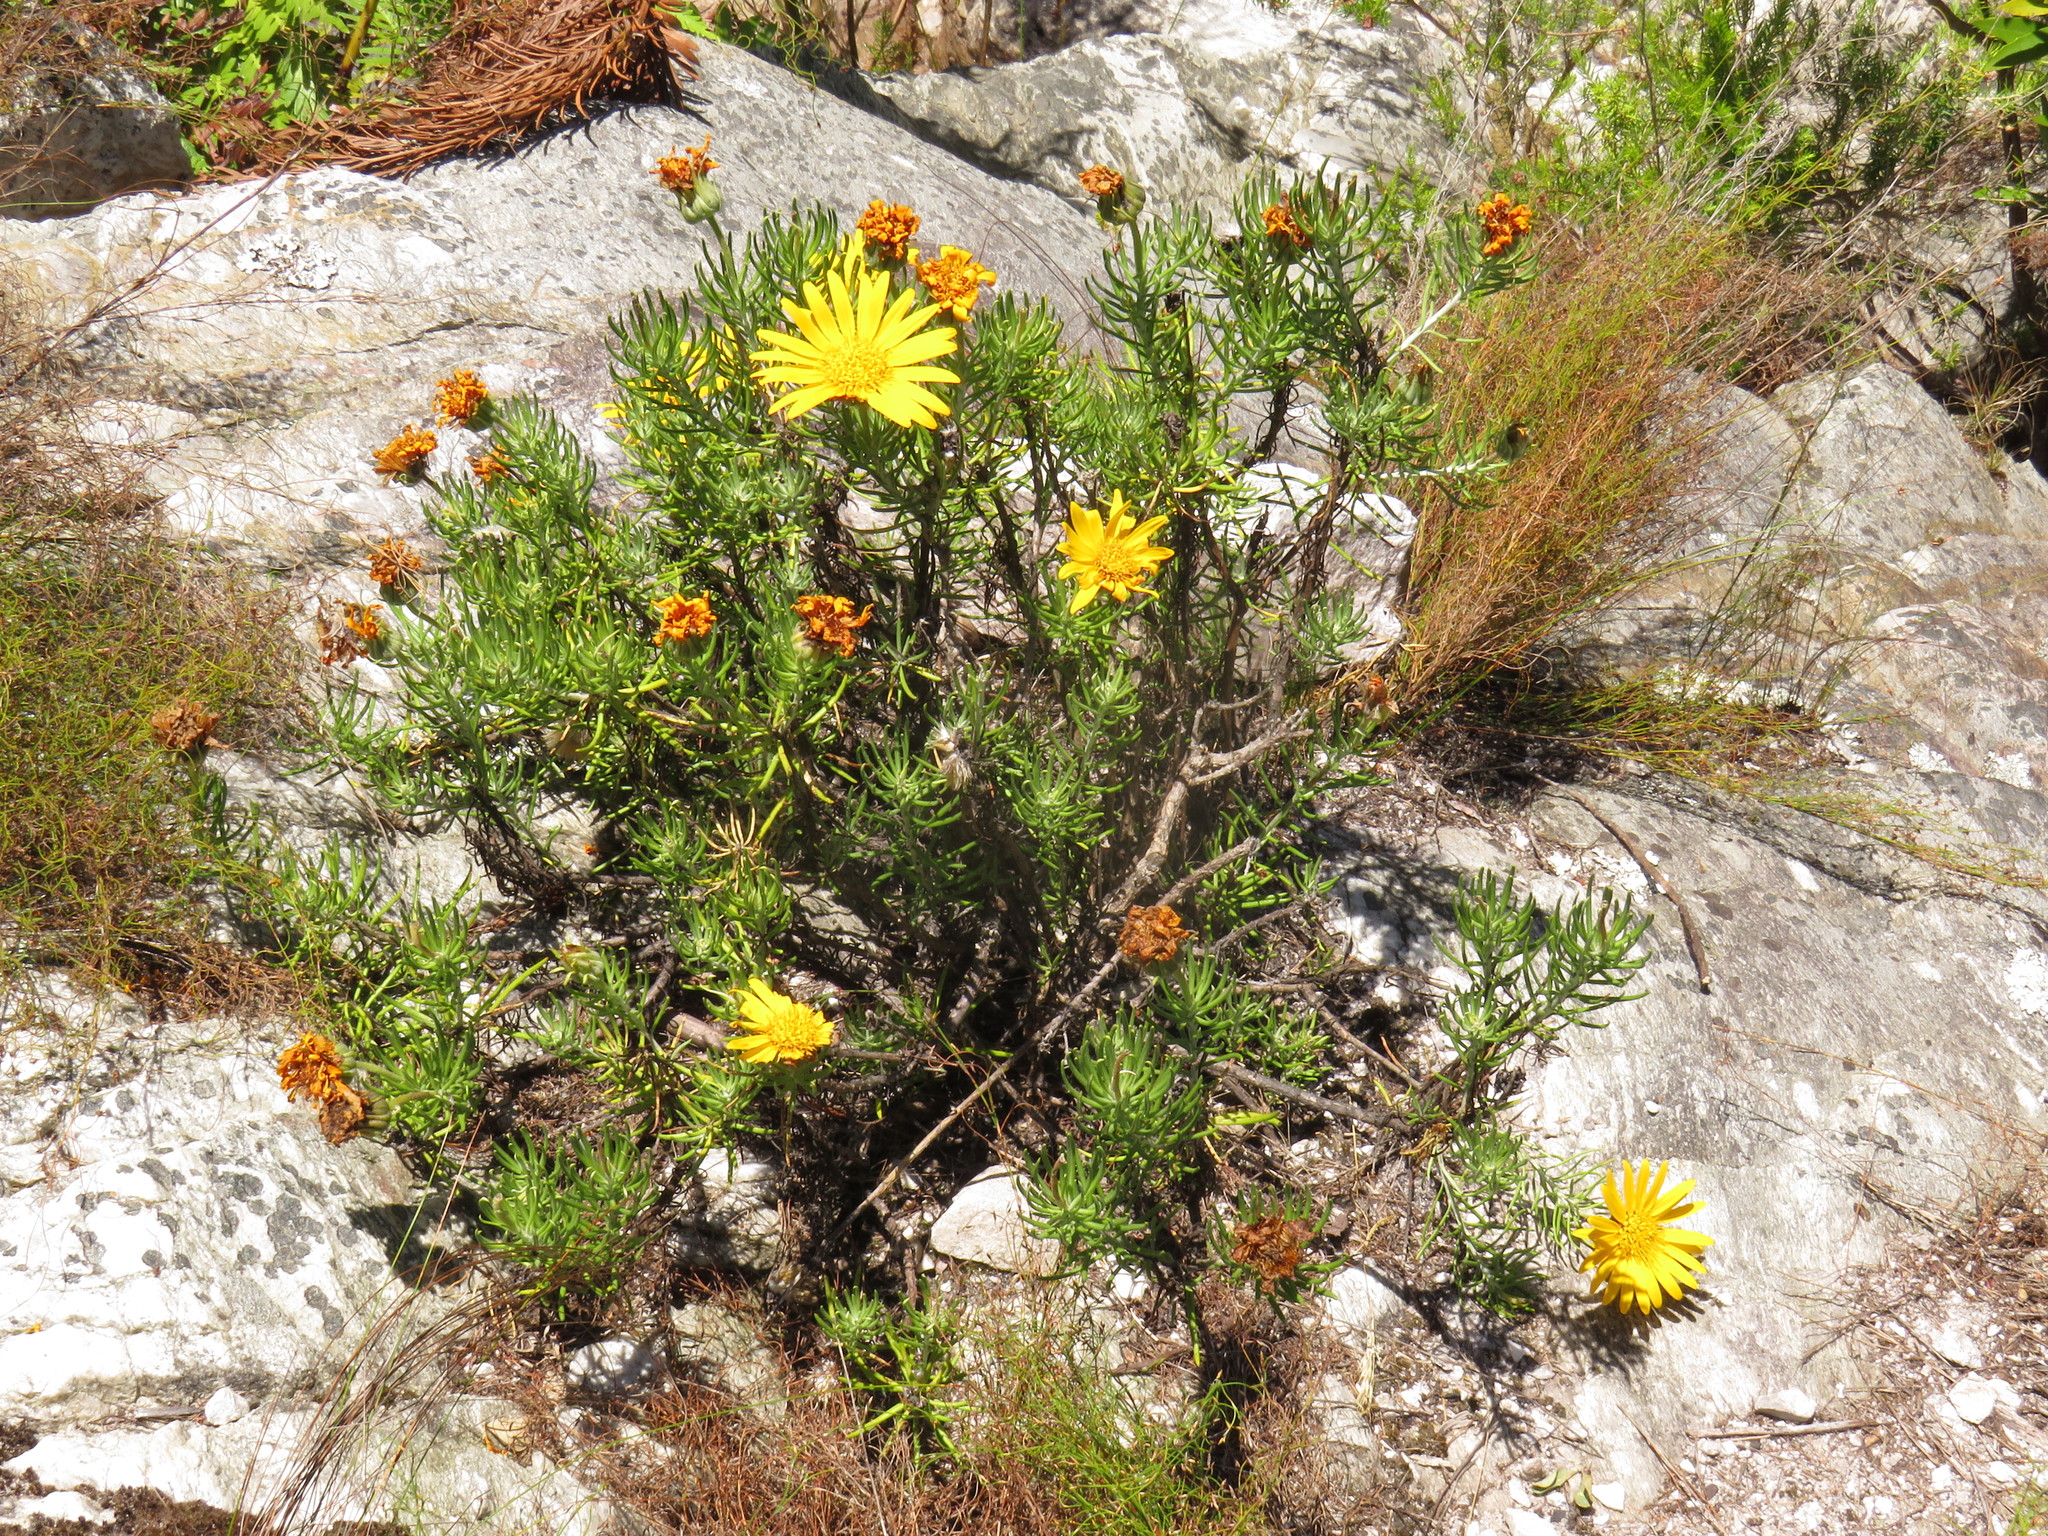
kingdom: Plantae
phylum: Tracheophyta
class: Magnoliopsida
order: Asterales
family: Asteraceae
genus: Heterolepis
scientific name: Heterolepis aliena
